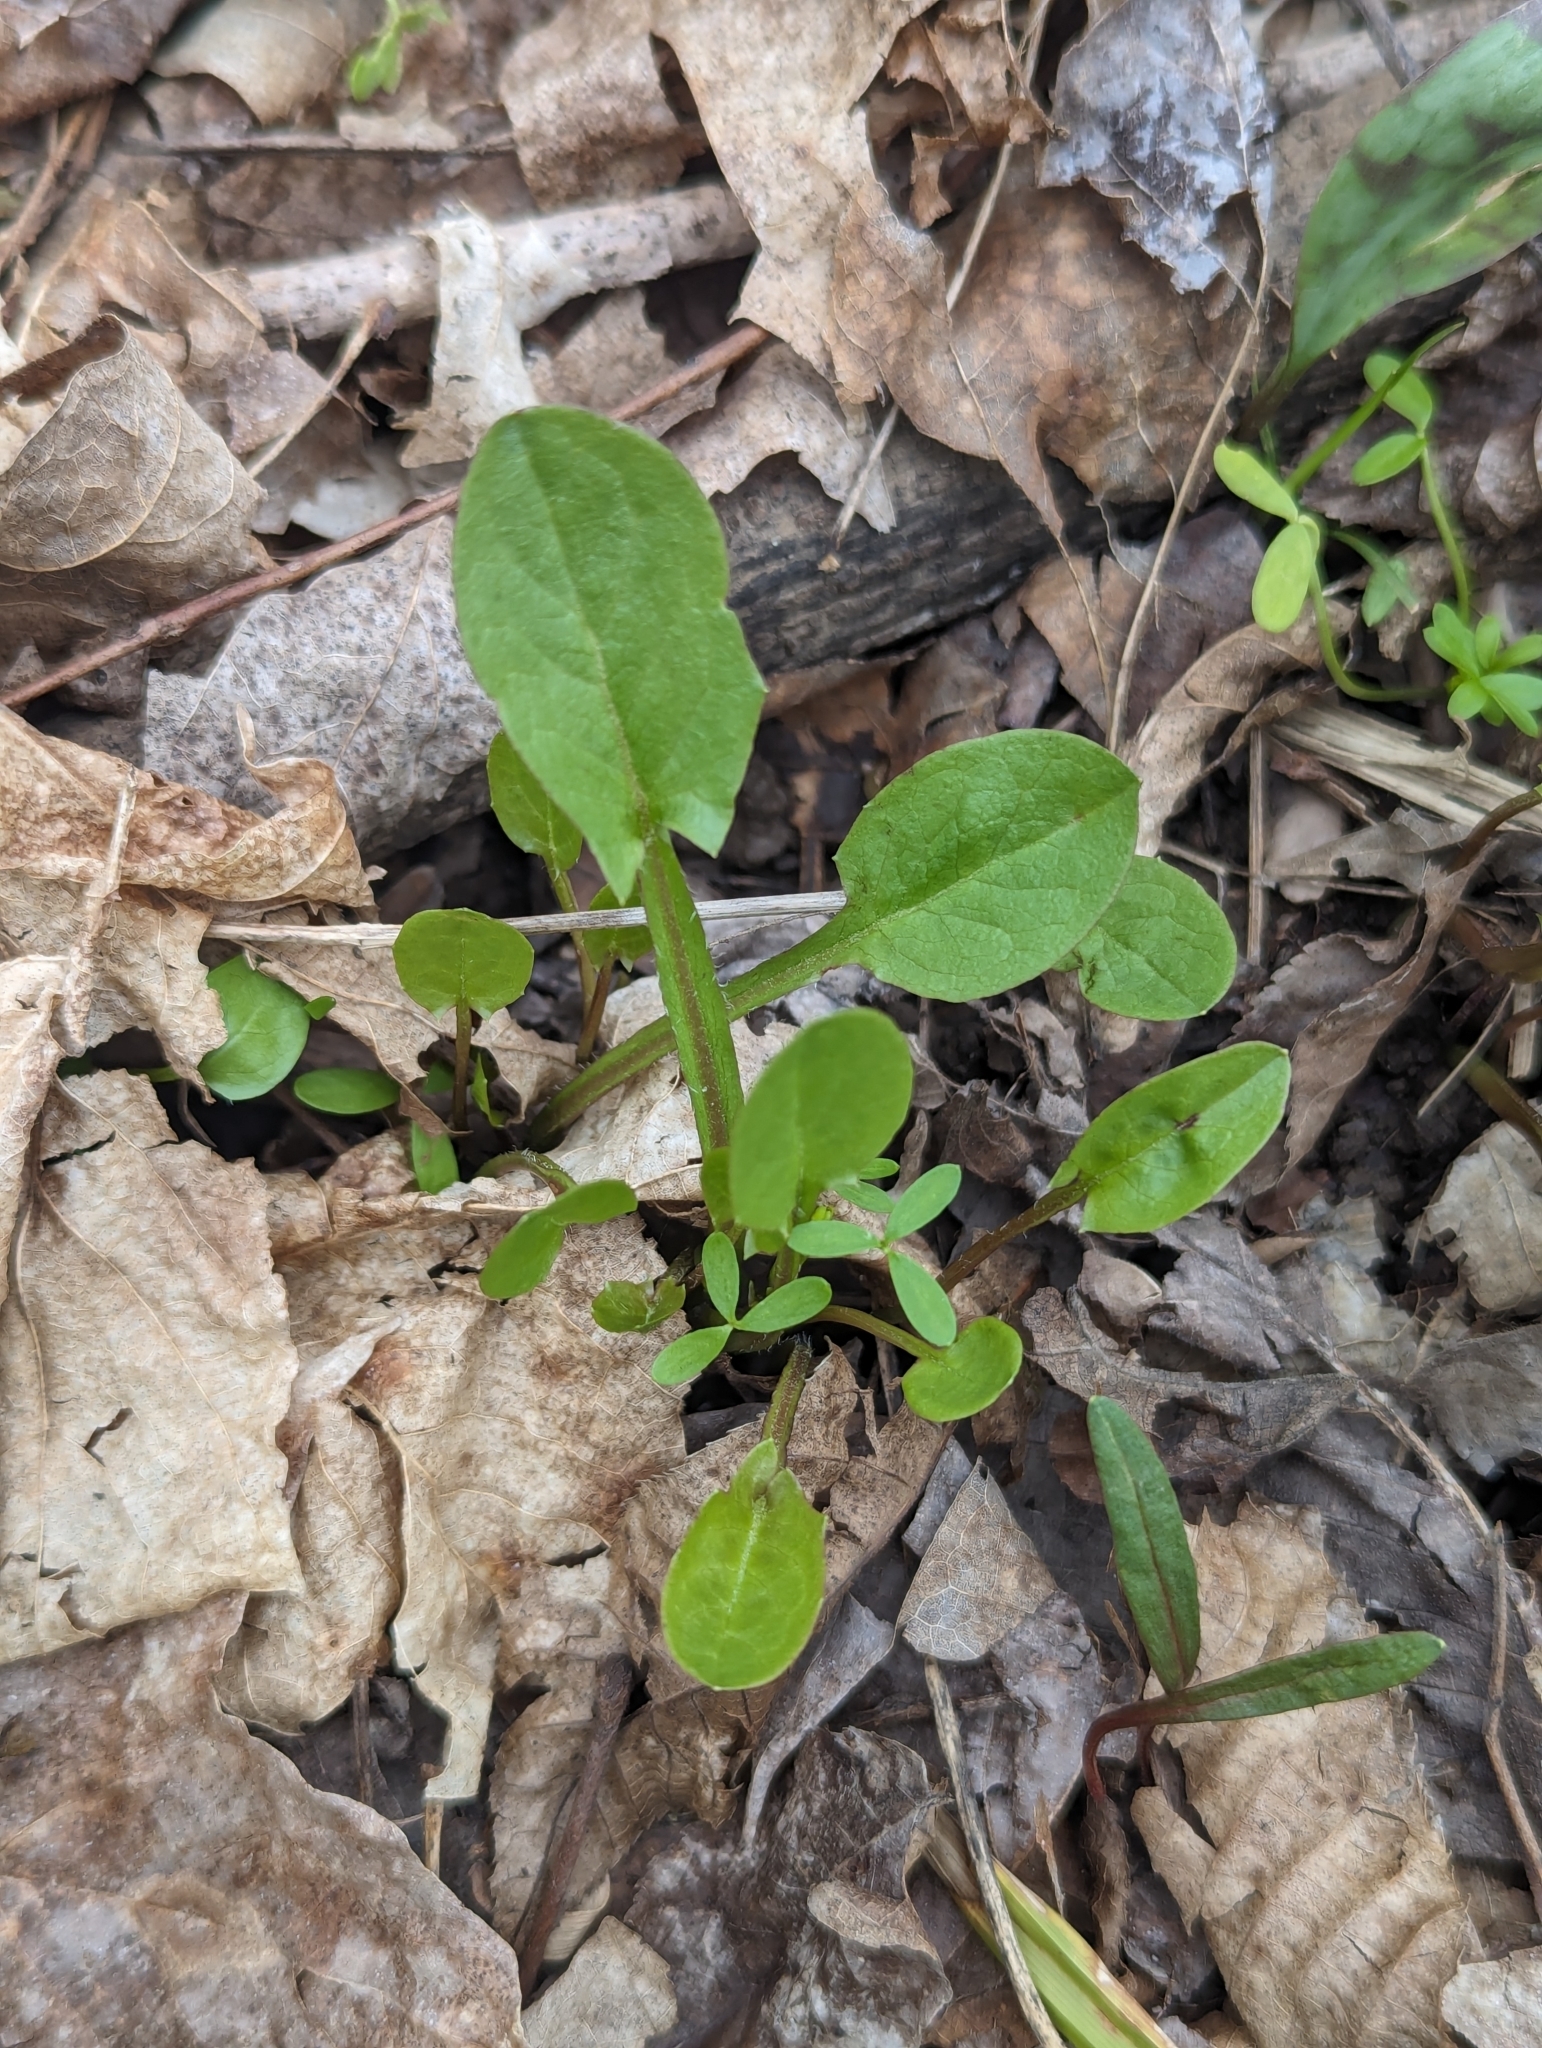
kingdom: Plantae
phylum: Tracheophyta
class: Magnoliopsida
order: Asterales
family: Asteraceae
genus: Nabalus
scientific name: Nabalus crepidineus
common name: Nodding rattlesnakeroot
